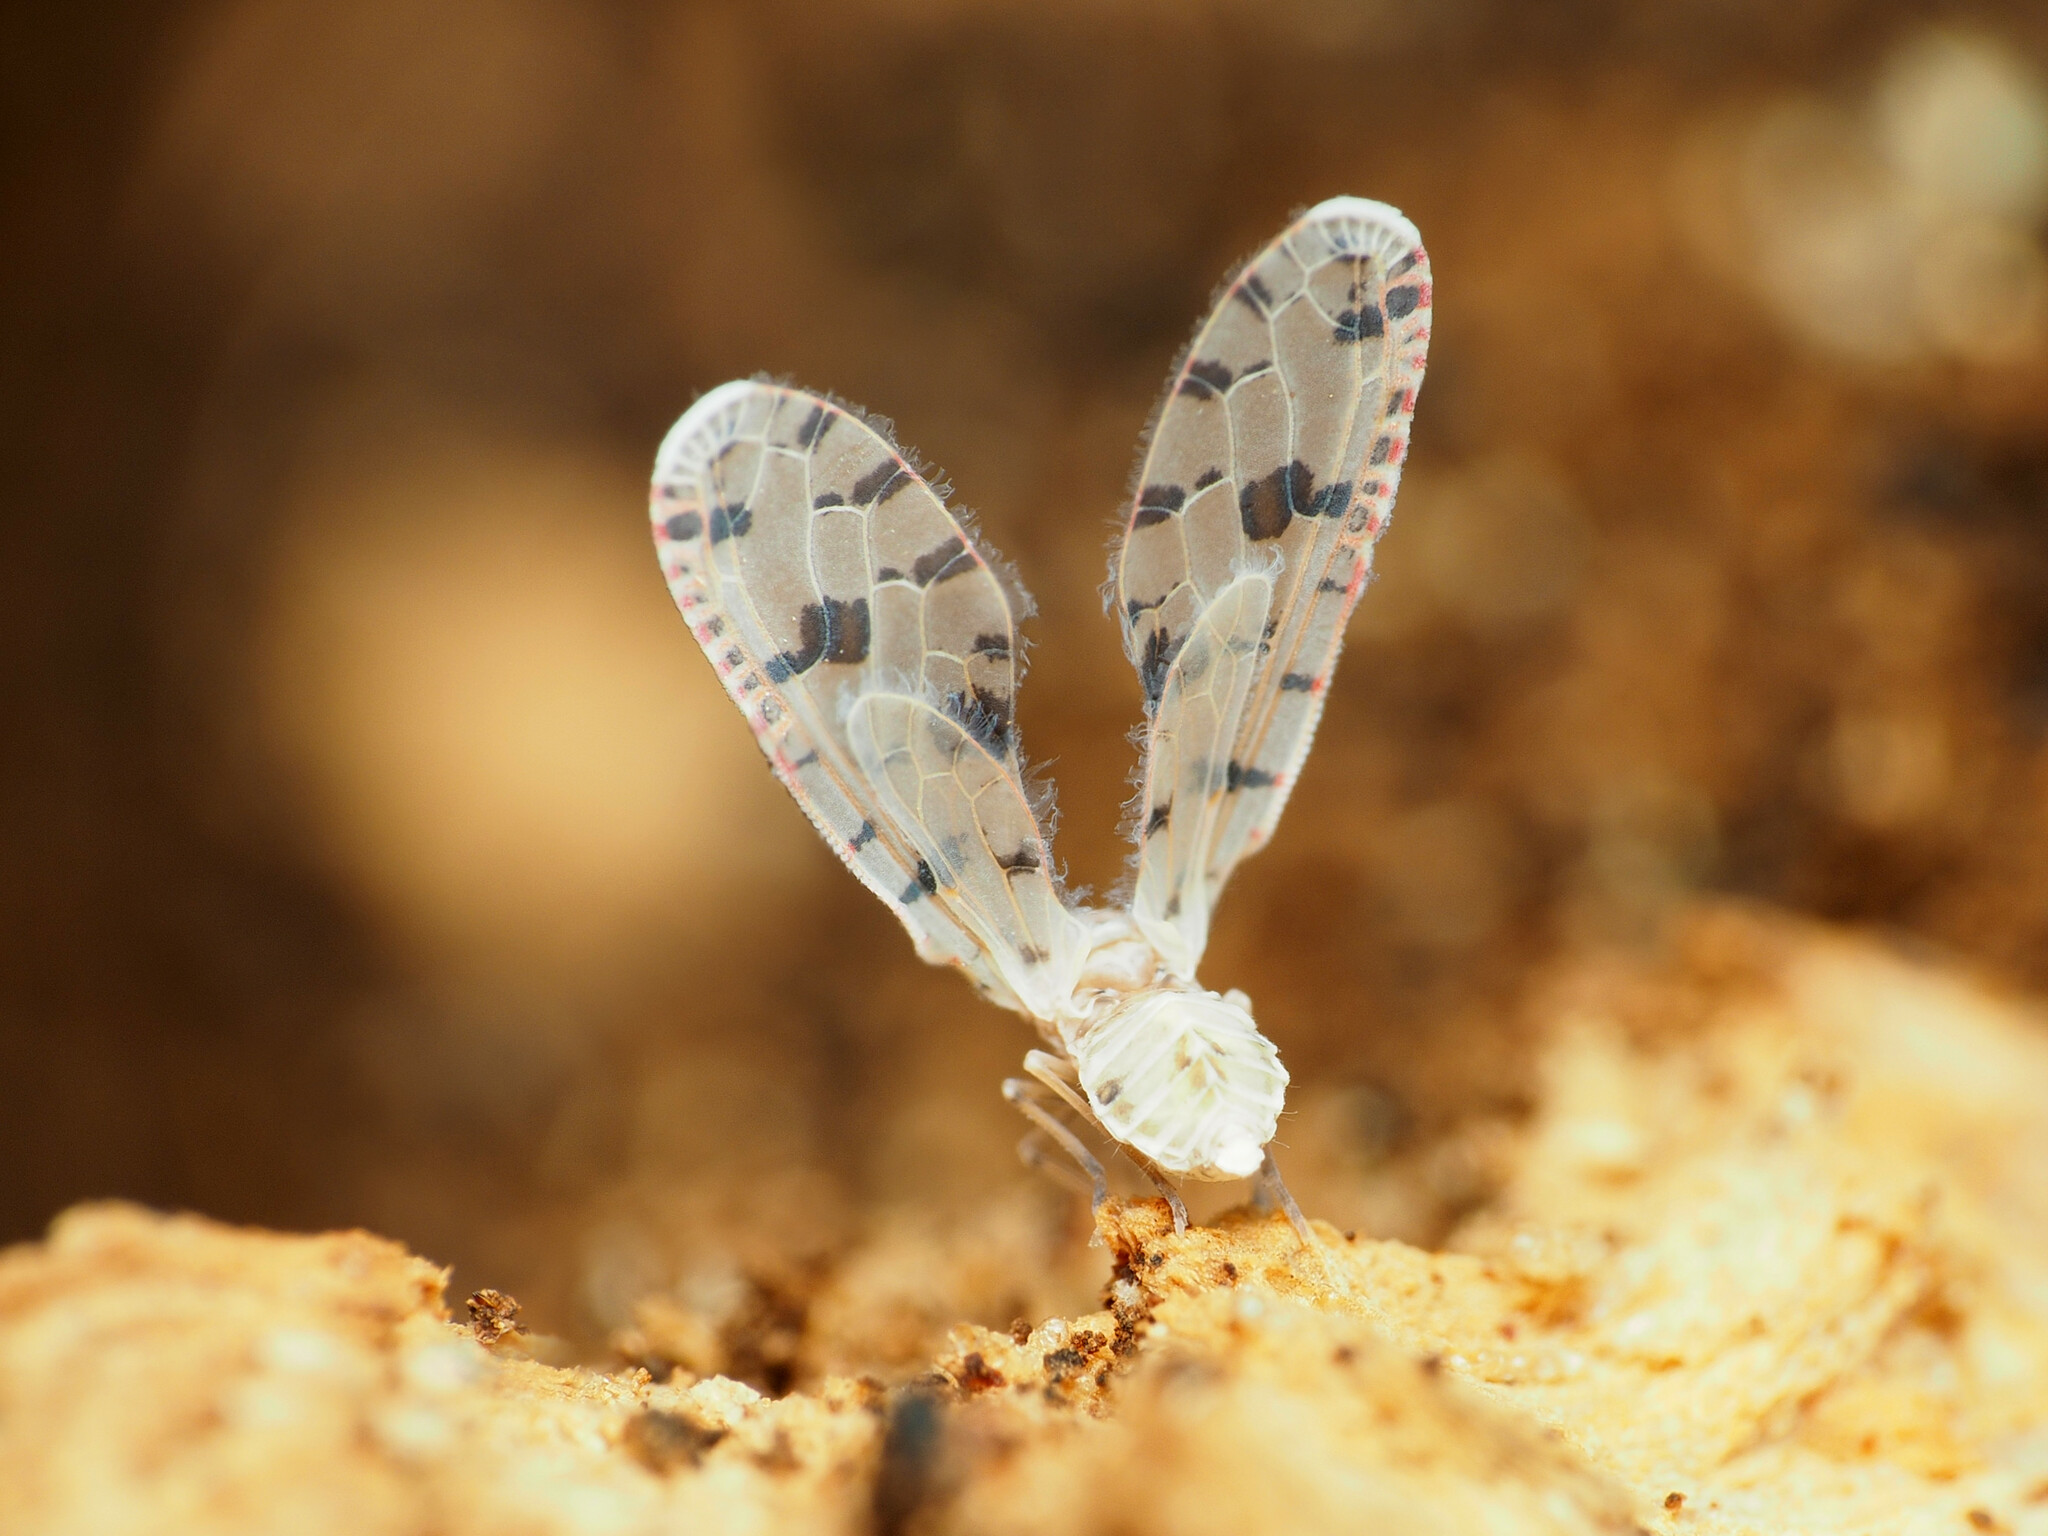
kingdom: Animalia
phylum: Arthropoda
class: Insecta
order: Hemiptera
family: Derbidae
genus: Sikaiana
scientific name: Sikaiana harti
